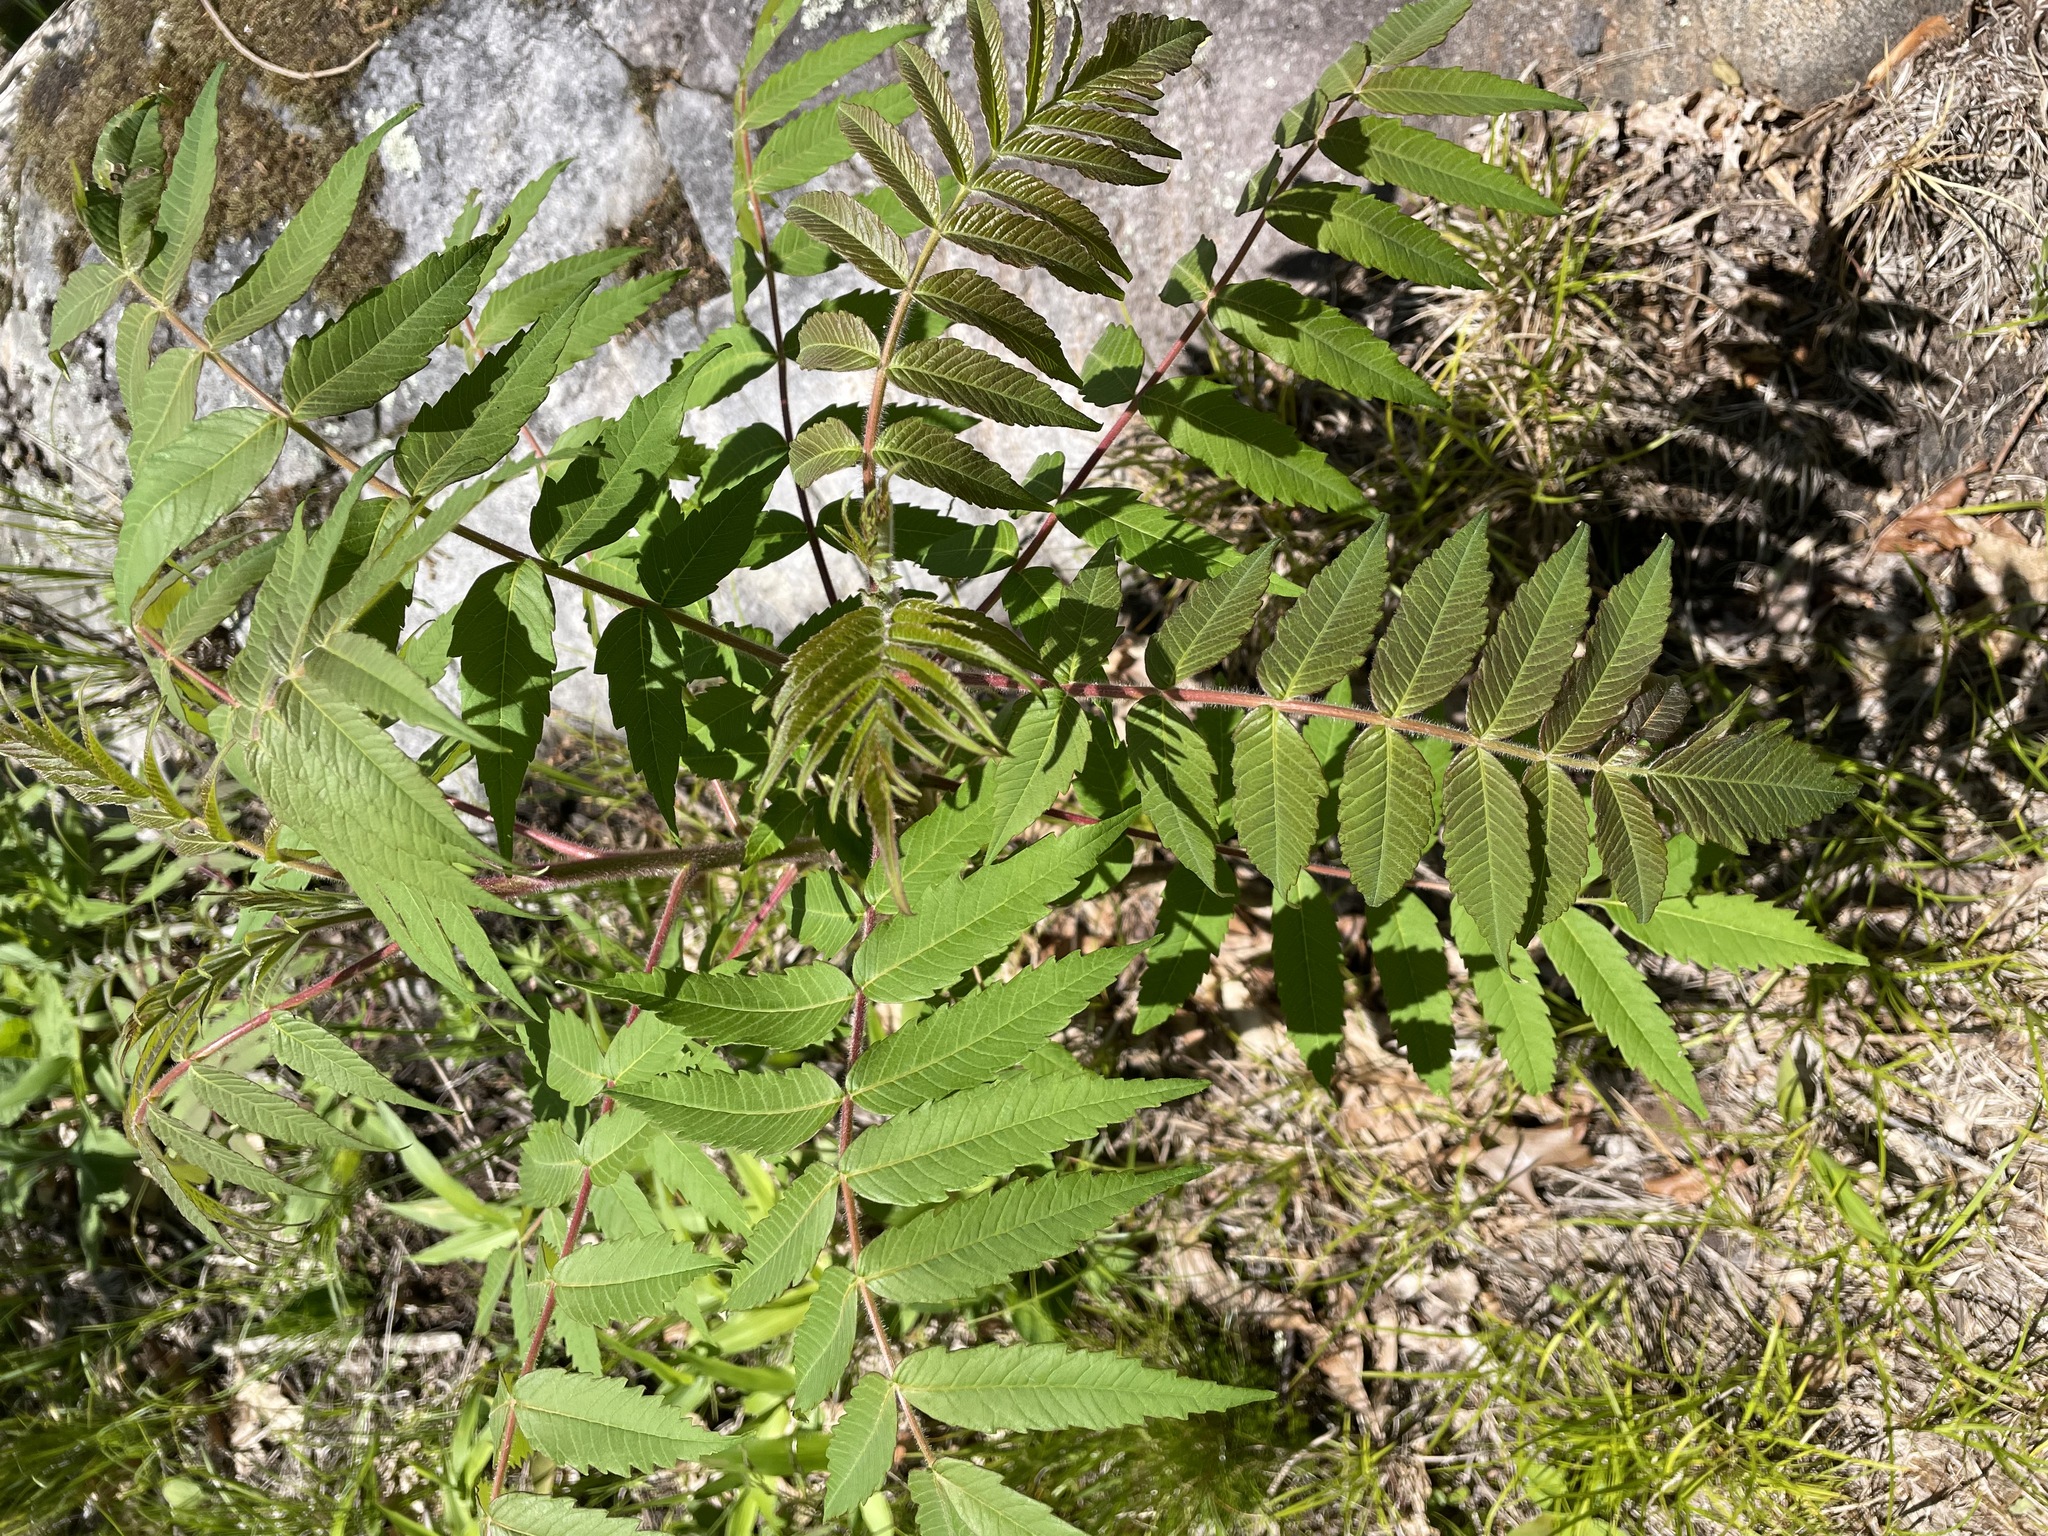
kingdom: Plantae
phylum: Tracheophyta
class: Magnoliopsida
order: Sapindales
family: Anacardiaceae
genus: Rhus
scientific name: Rhus typhina
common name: Staghorn sumac
